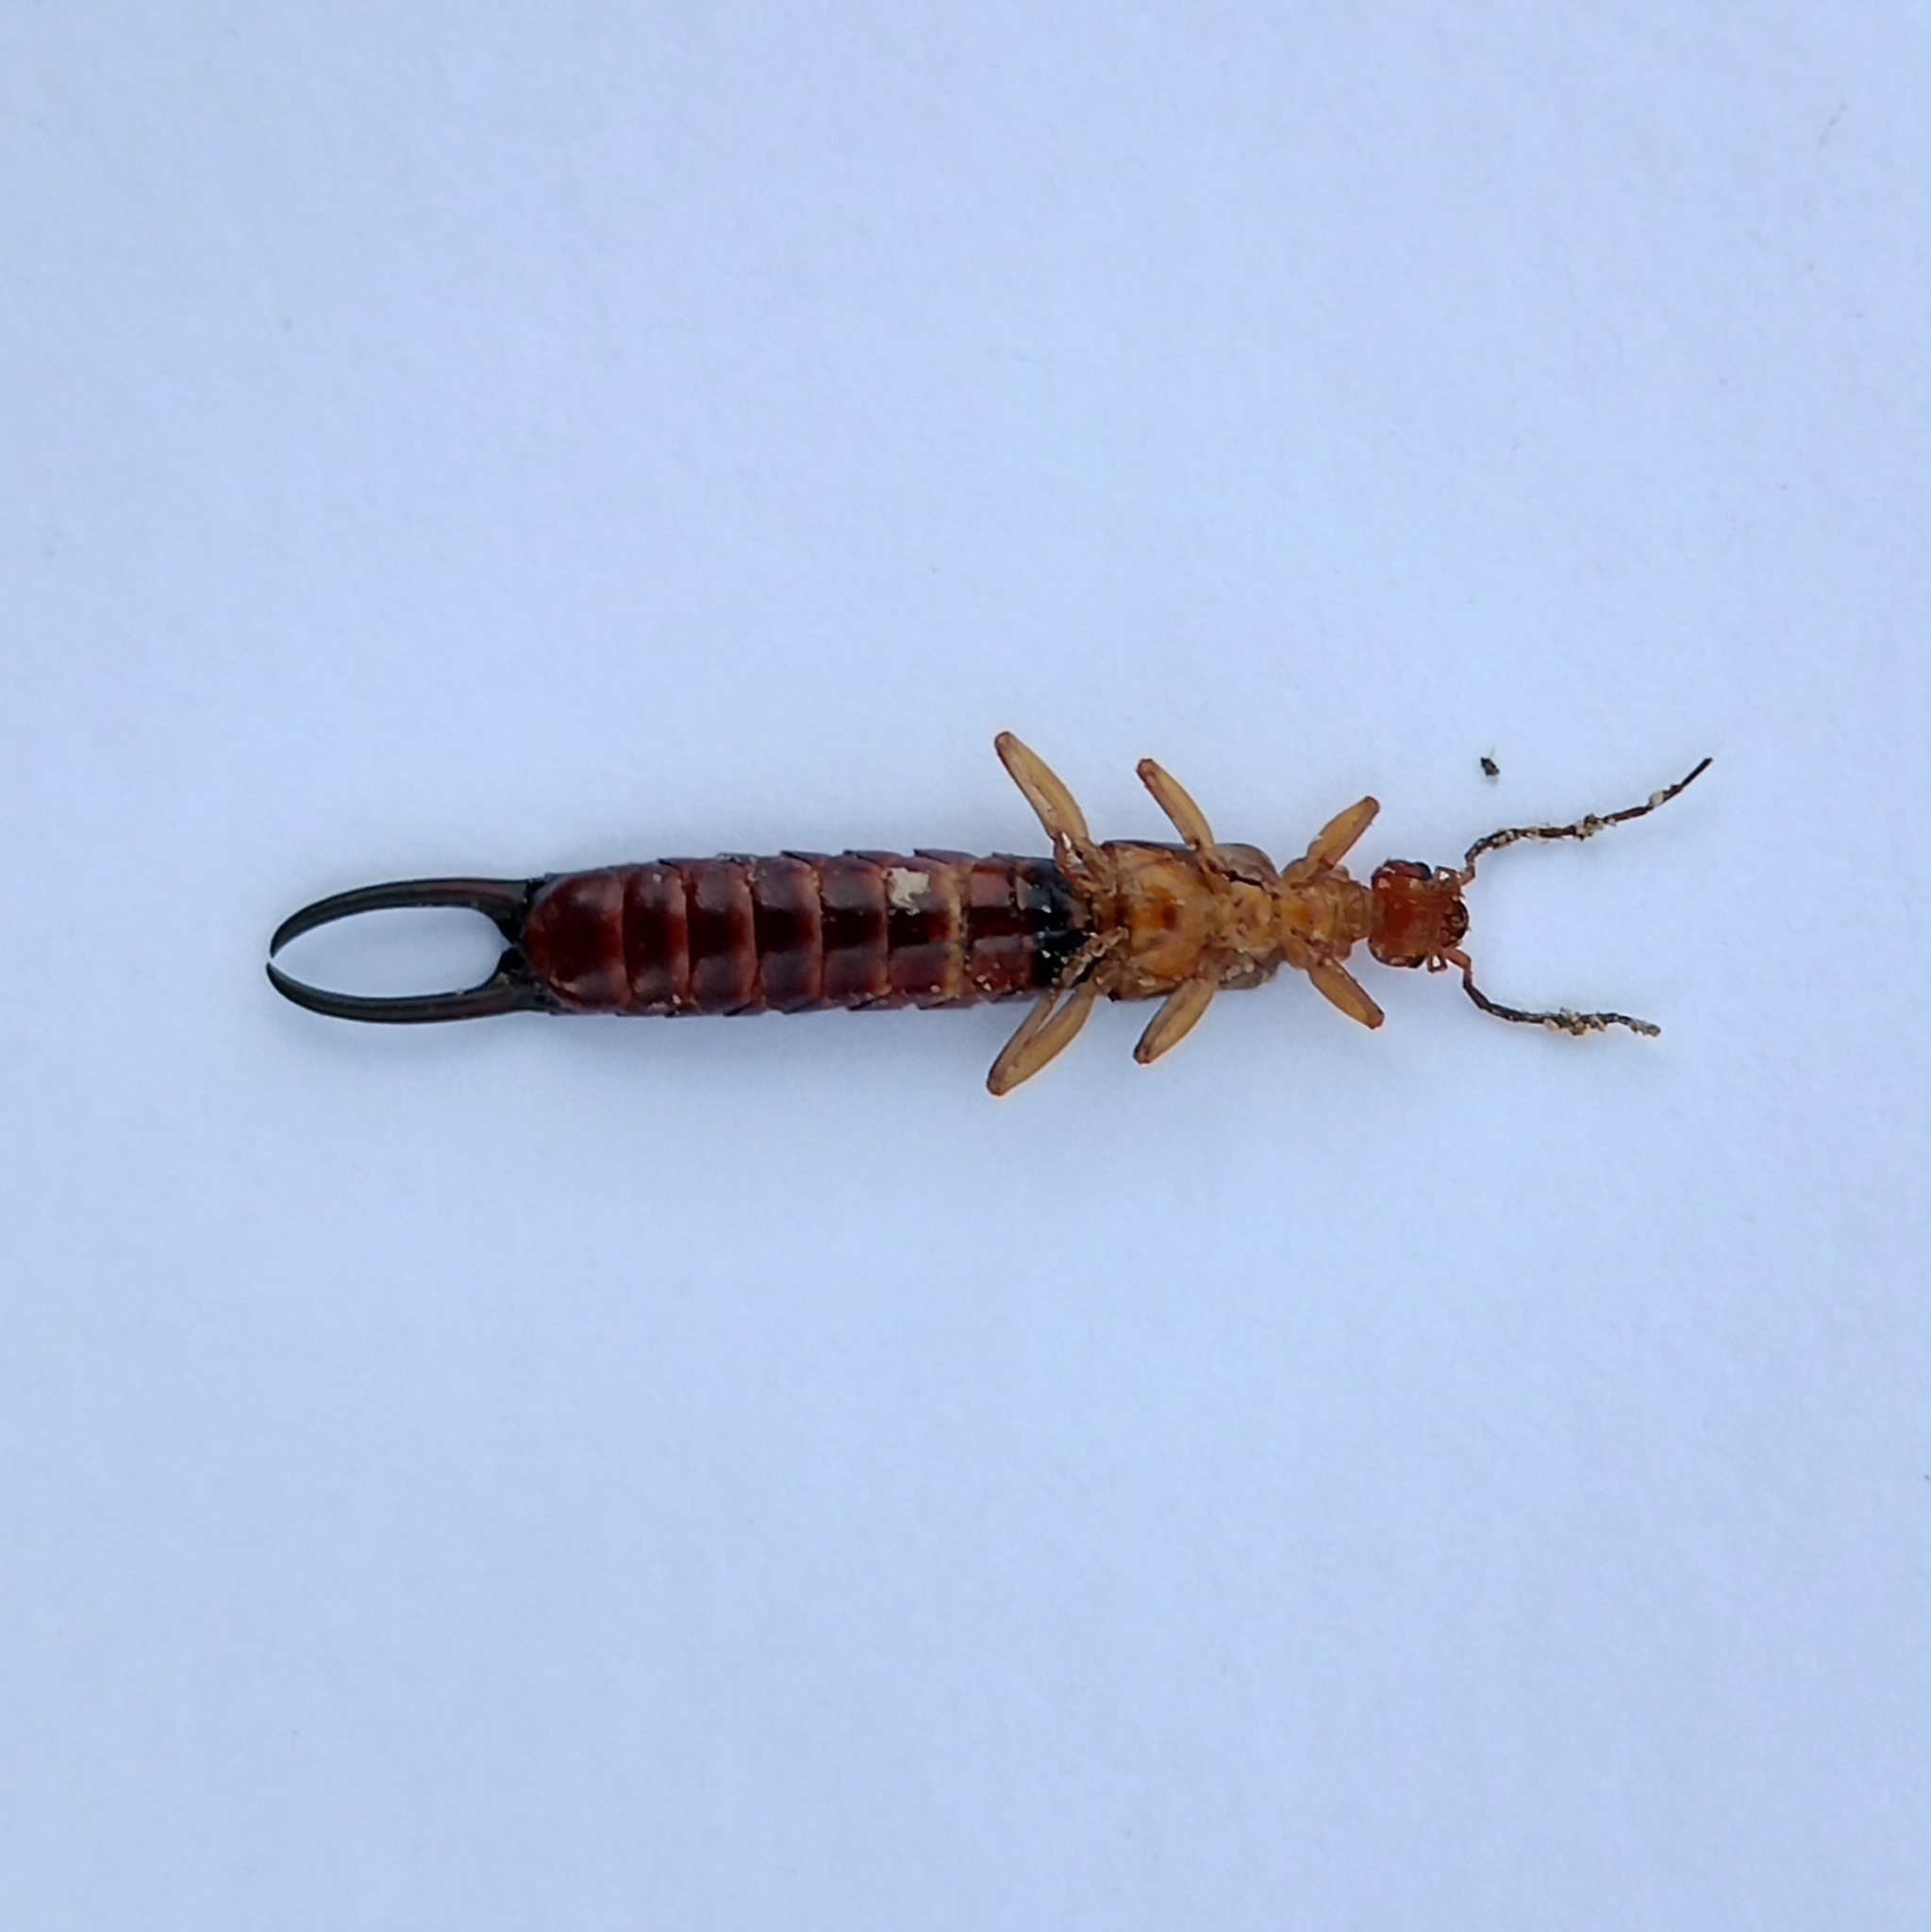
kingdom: Animalia
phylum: Arthropoda
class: Insecta
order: Dermaptera
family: Forficulidae
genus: Forficula
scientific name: Forficula smyrnensis
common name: Smyrna earwig
